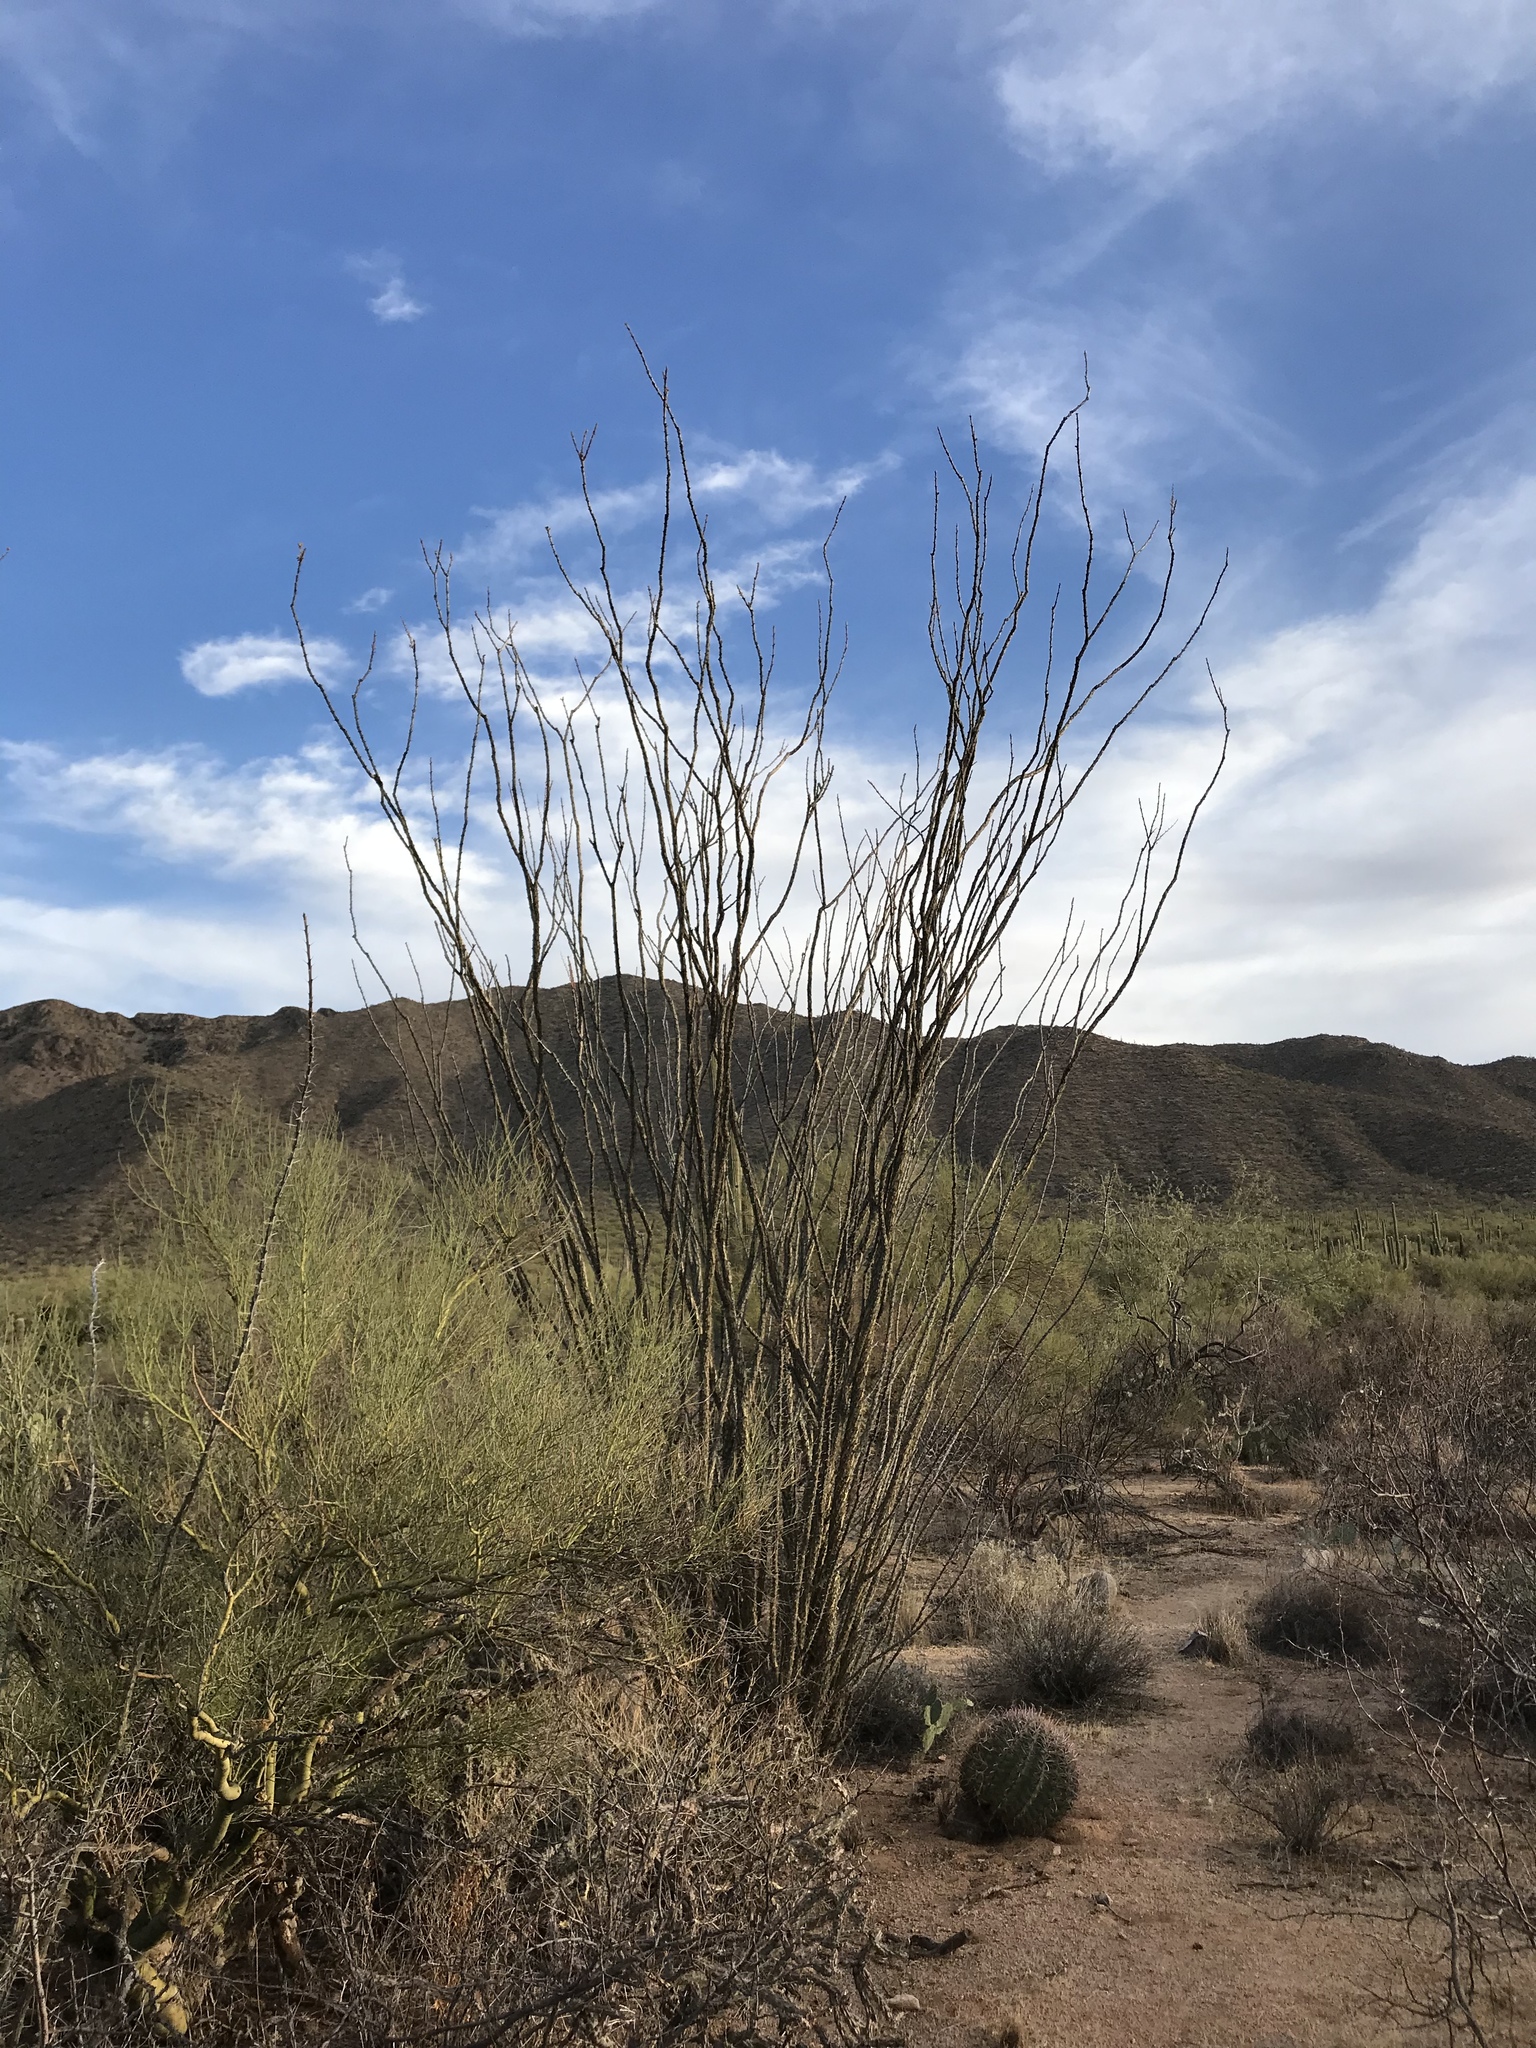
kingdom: Plantae
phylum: Tracheophyta
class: Magnoliopsida
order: Ericales
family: Fouquieriaceae
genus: Fouquieria
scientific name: Fouquieria splendens
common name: Vine-cactus
